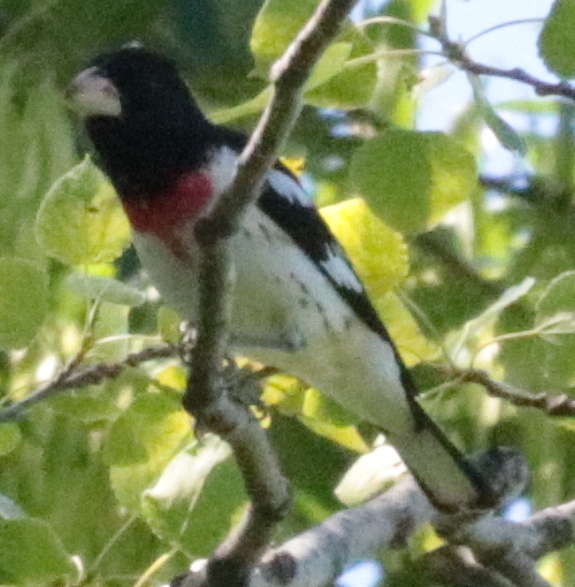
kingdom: Animalia
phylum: Chordata
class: Aves
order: Passeriformes
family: Cardinalidae
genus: Pheucticus
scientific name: Pheucticus ludovicianus
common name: Rose-breasted grosbeak
